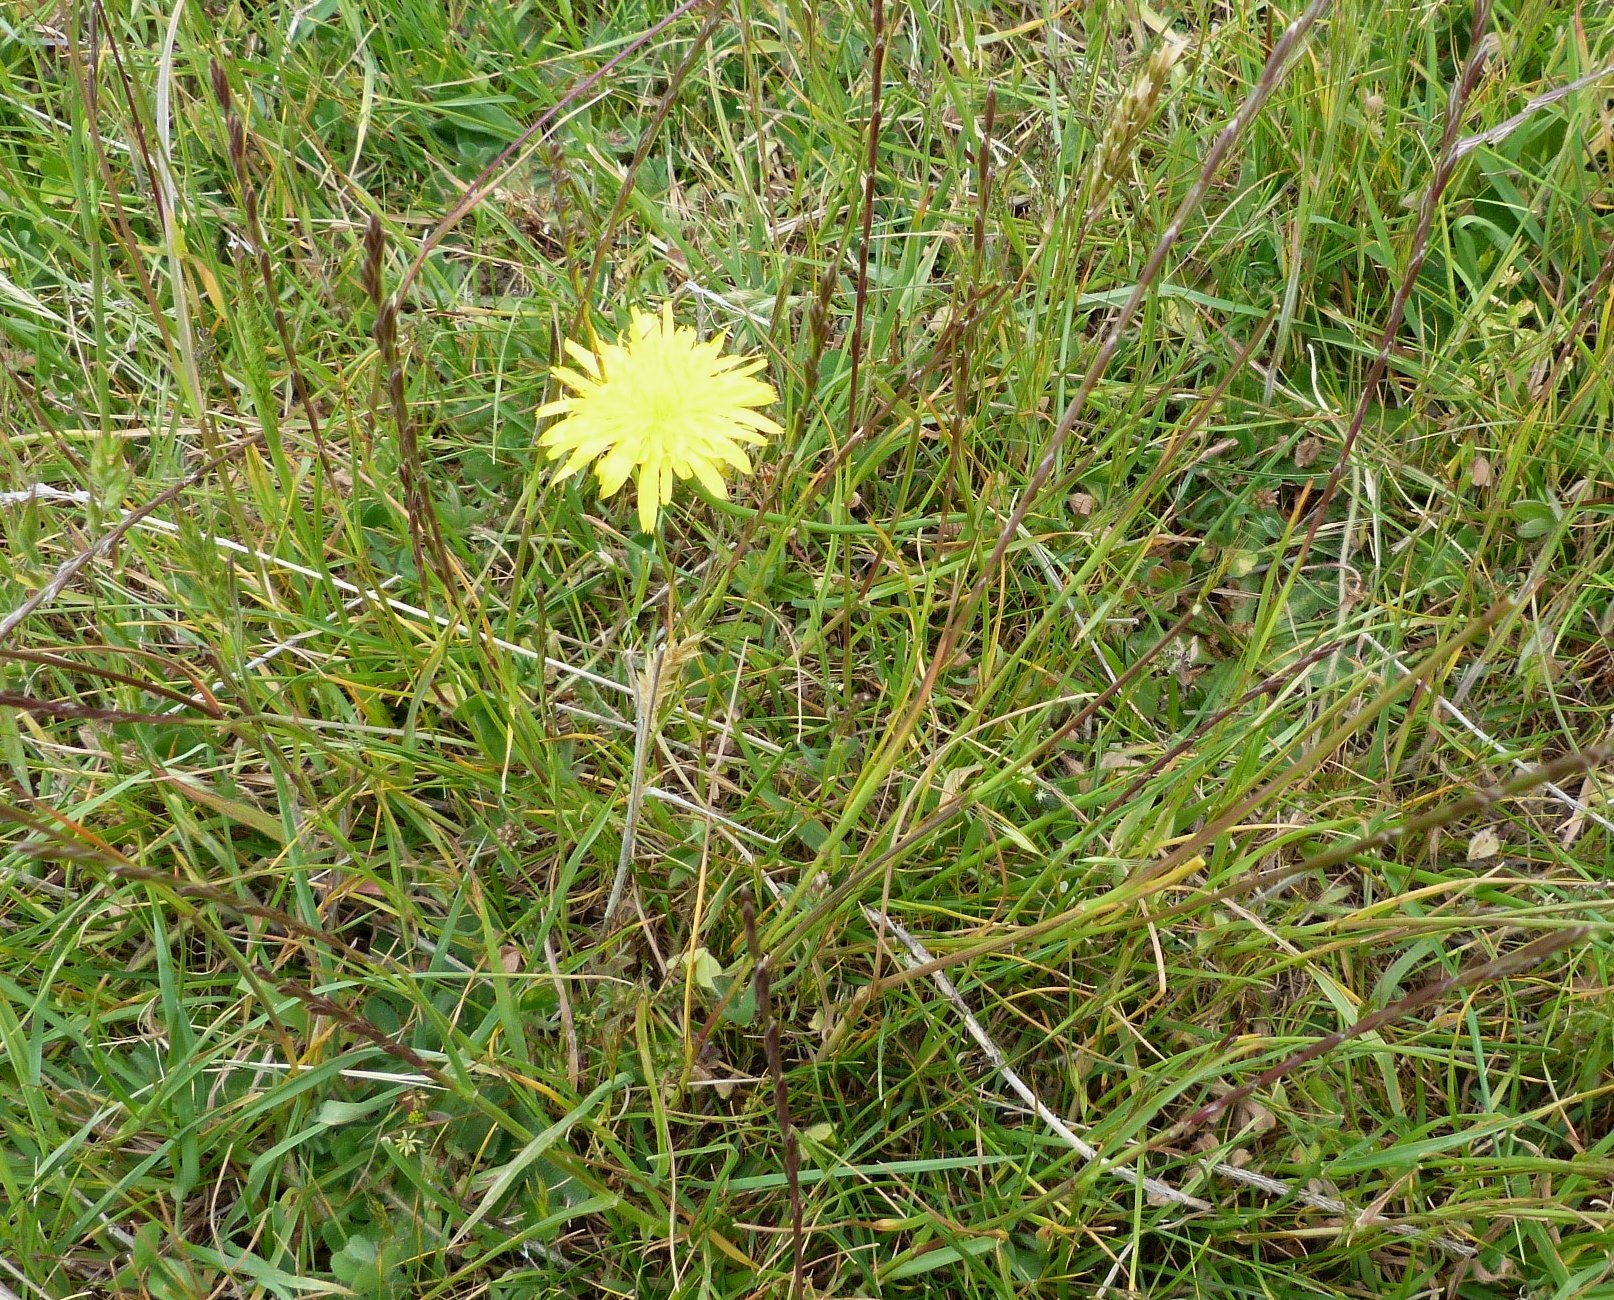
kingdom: Plantae
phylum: Tracheophyta
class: Magnoliopsida
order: Asterales
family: Asteraceae
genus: Hypochaeris
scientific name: Hypochaeris radicata
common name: Flatweed
